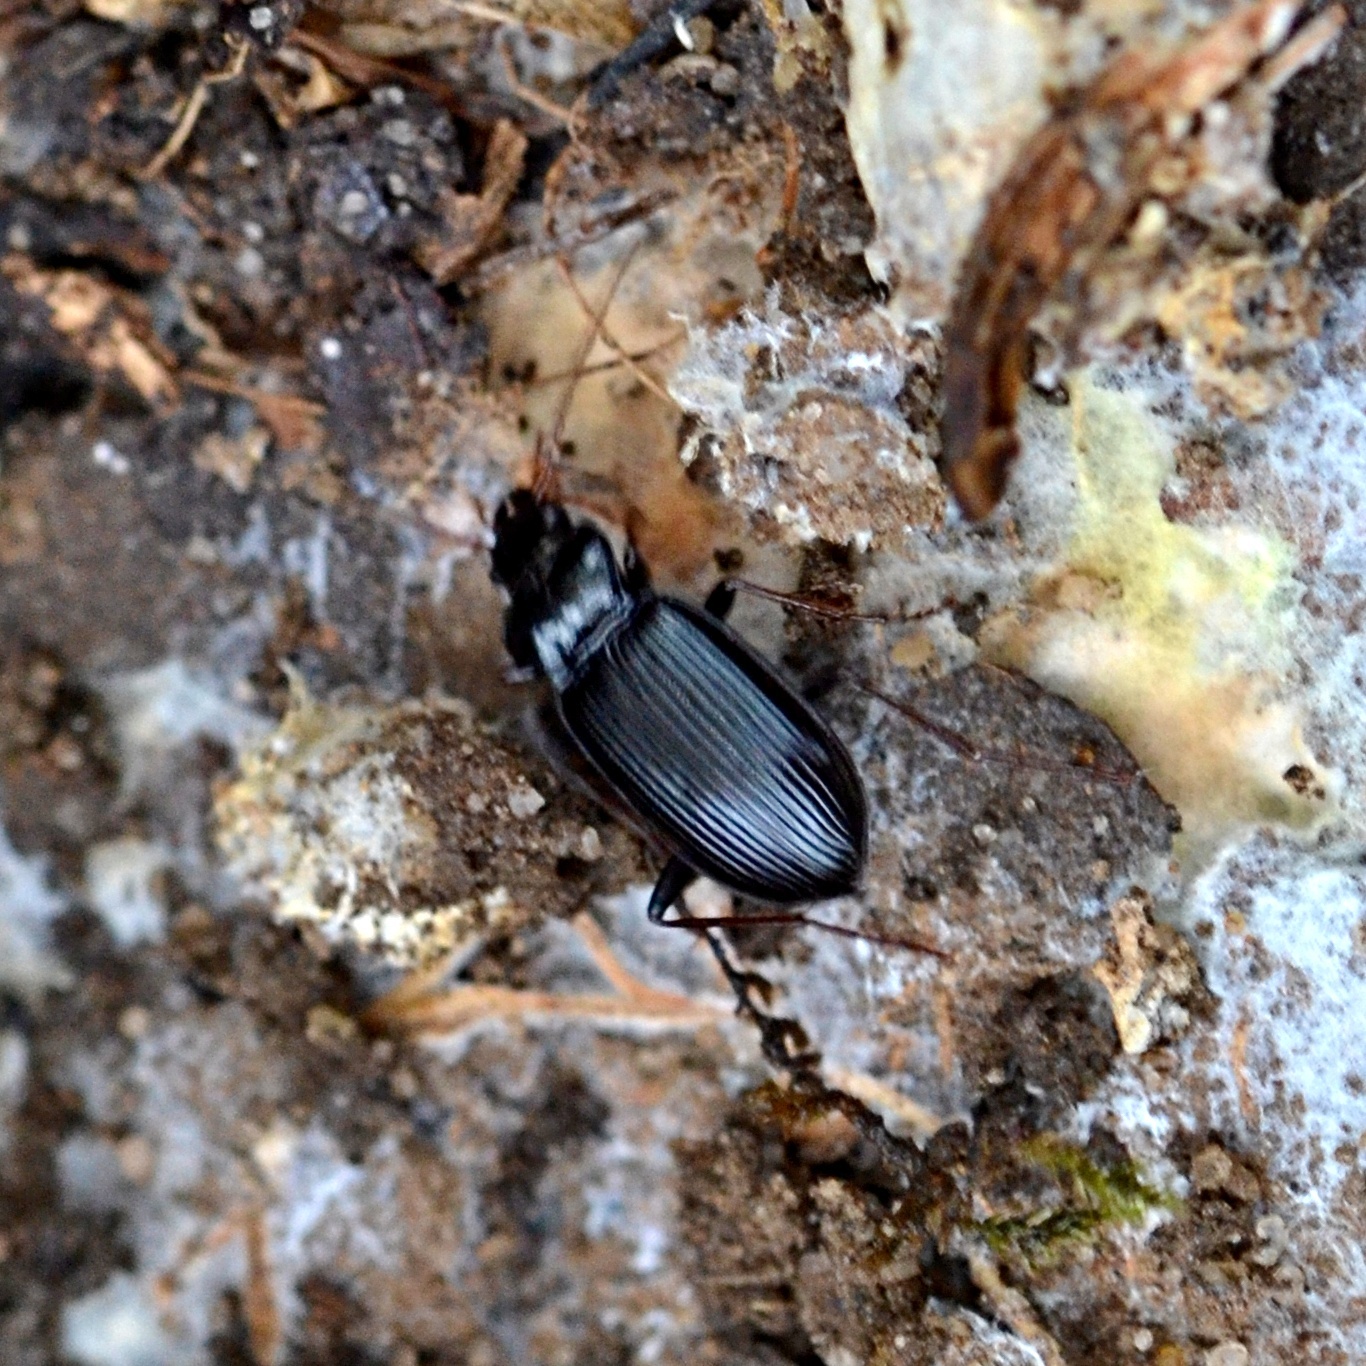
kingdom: Animalia
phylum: Arthropoda
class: Insecta
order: Coleoptera
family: Carabidae
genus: Nebria
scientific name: Nebria brevicollis
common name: Short-necked gazelle beetle
